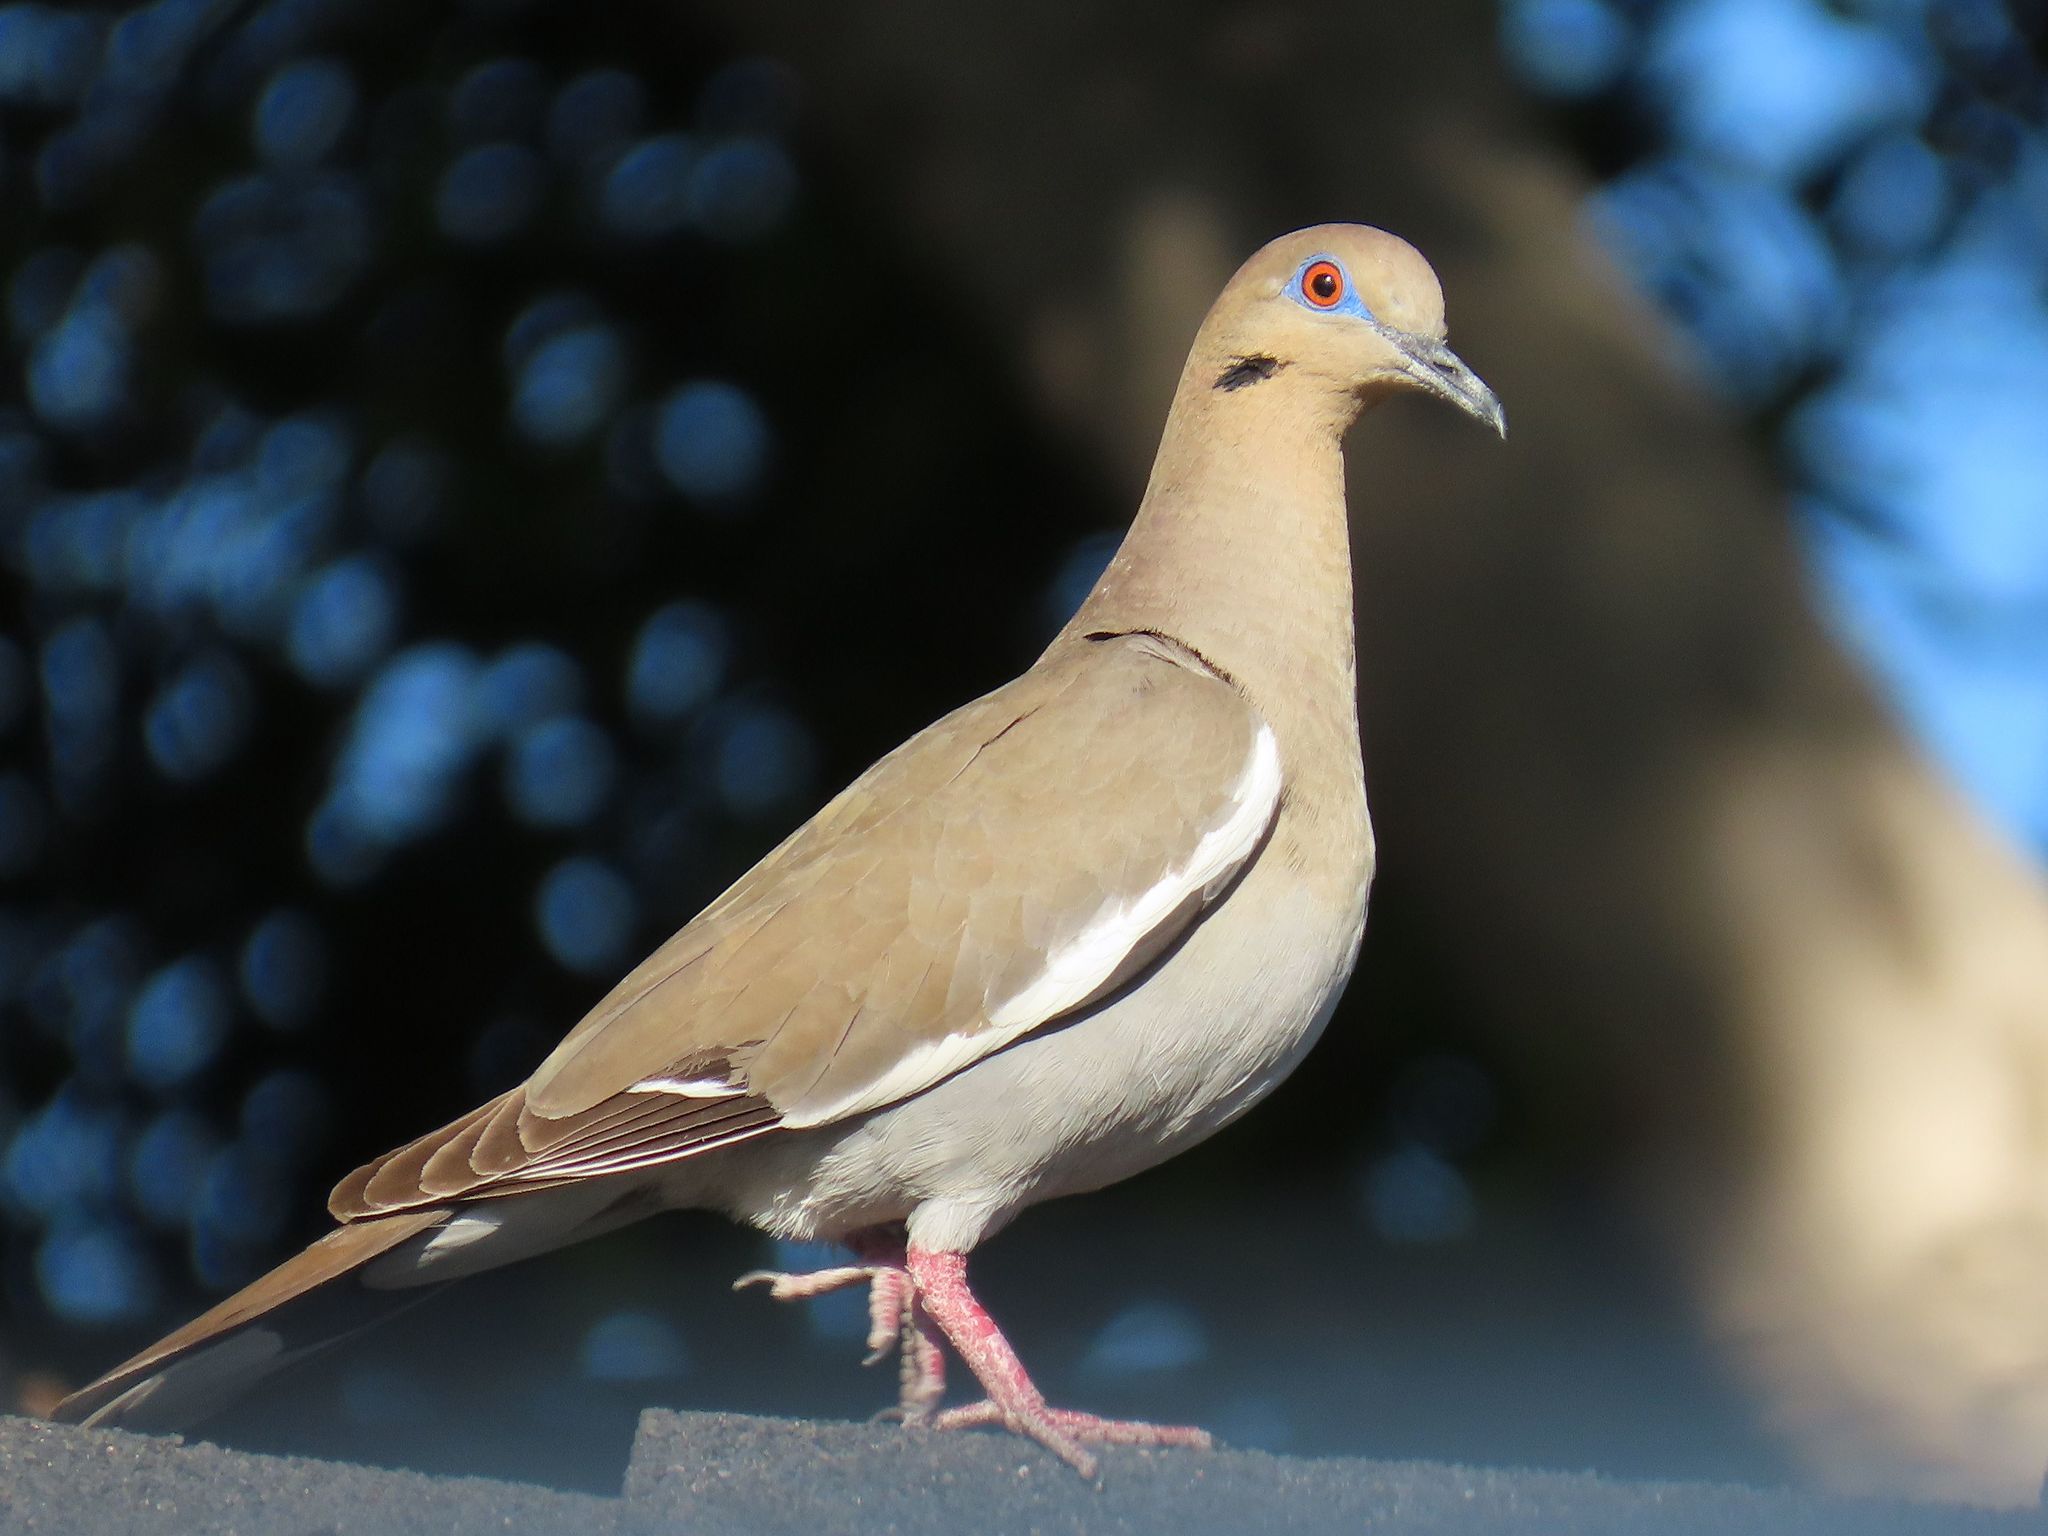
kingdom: Animalia
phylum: Chordata
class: Aves
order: Columbiformes
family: Columbidae
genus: Zenaida
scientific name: Zenaida asiatica
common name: White-winged dove
